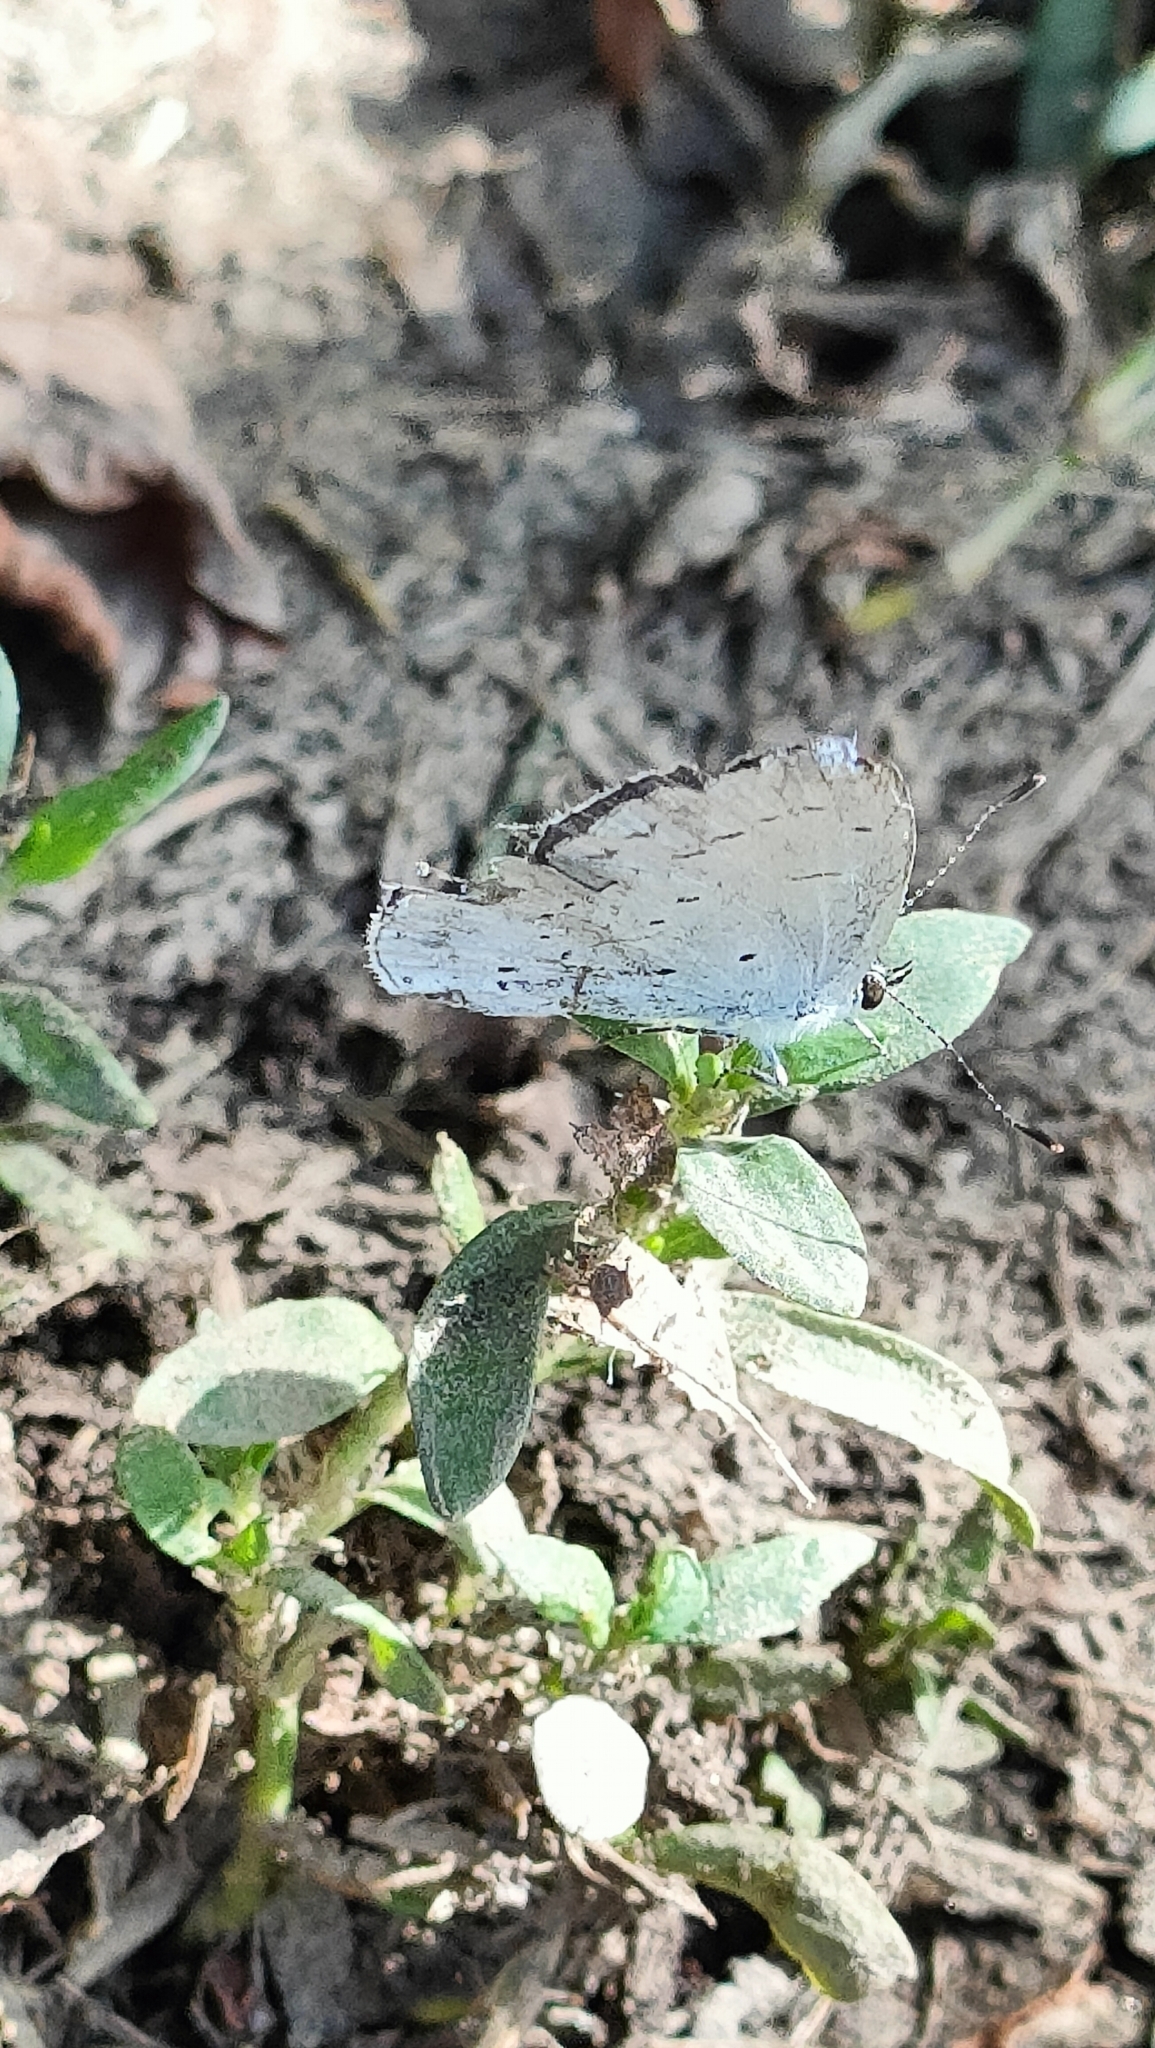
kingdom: Animalia
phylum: Arthropoda
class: Insecta
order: Lepidoptera
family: Lycaenidae
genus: Celastrina
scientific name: Celastrina argiolus
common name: Holly blue
